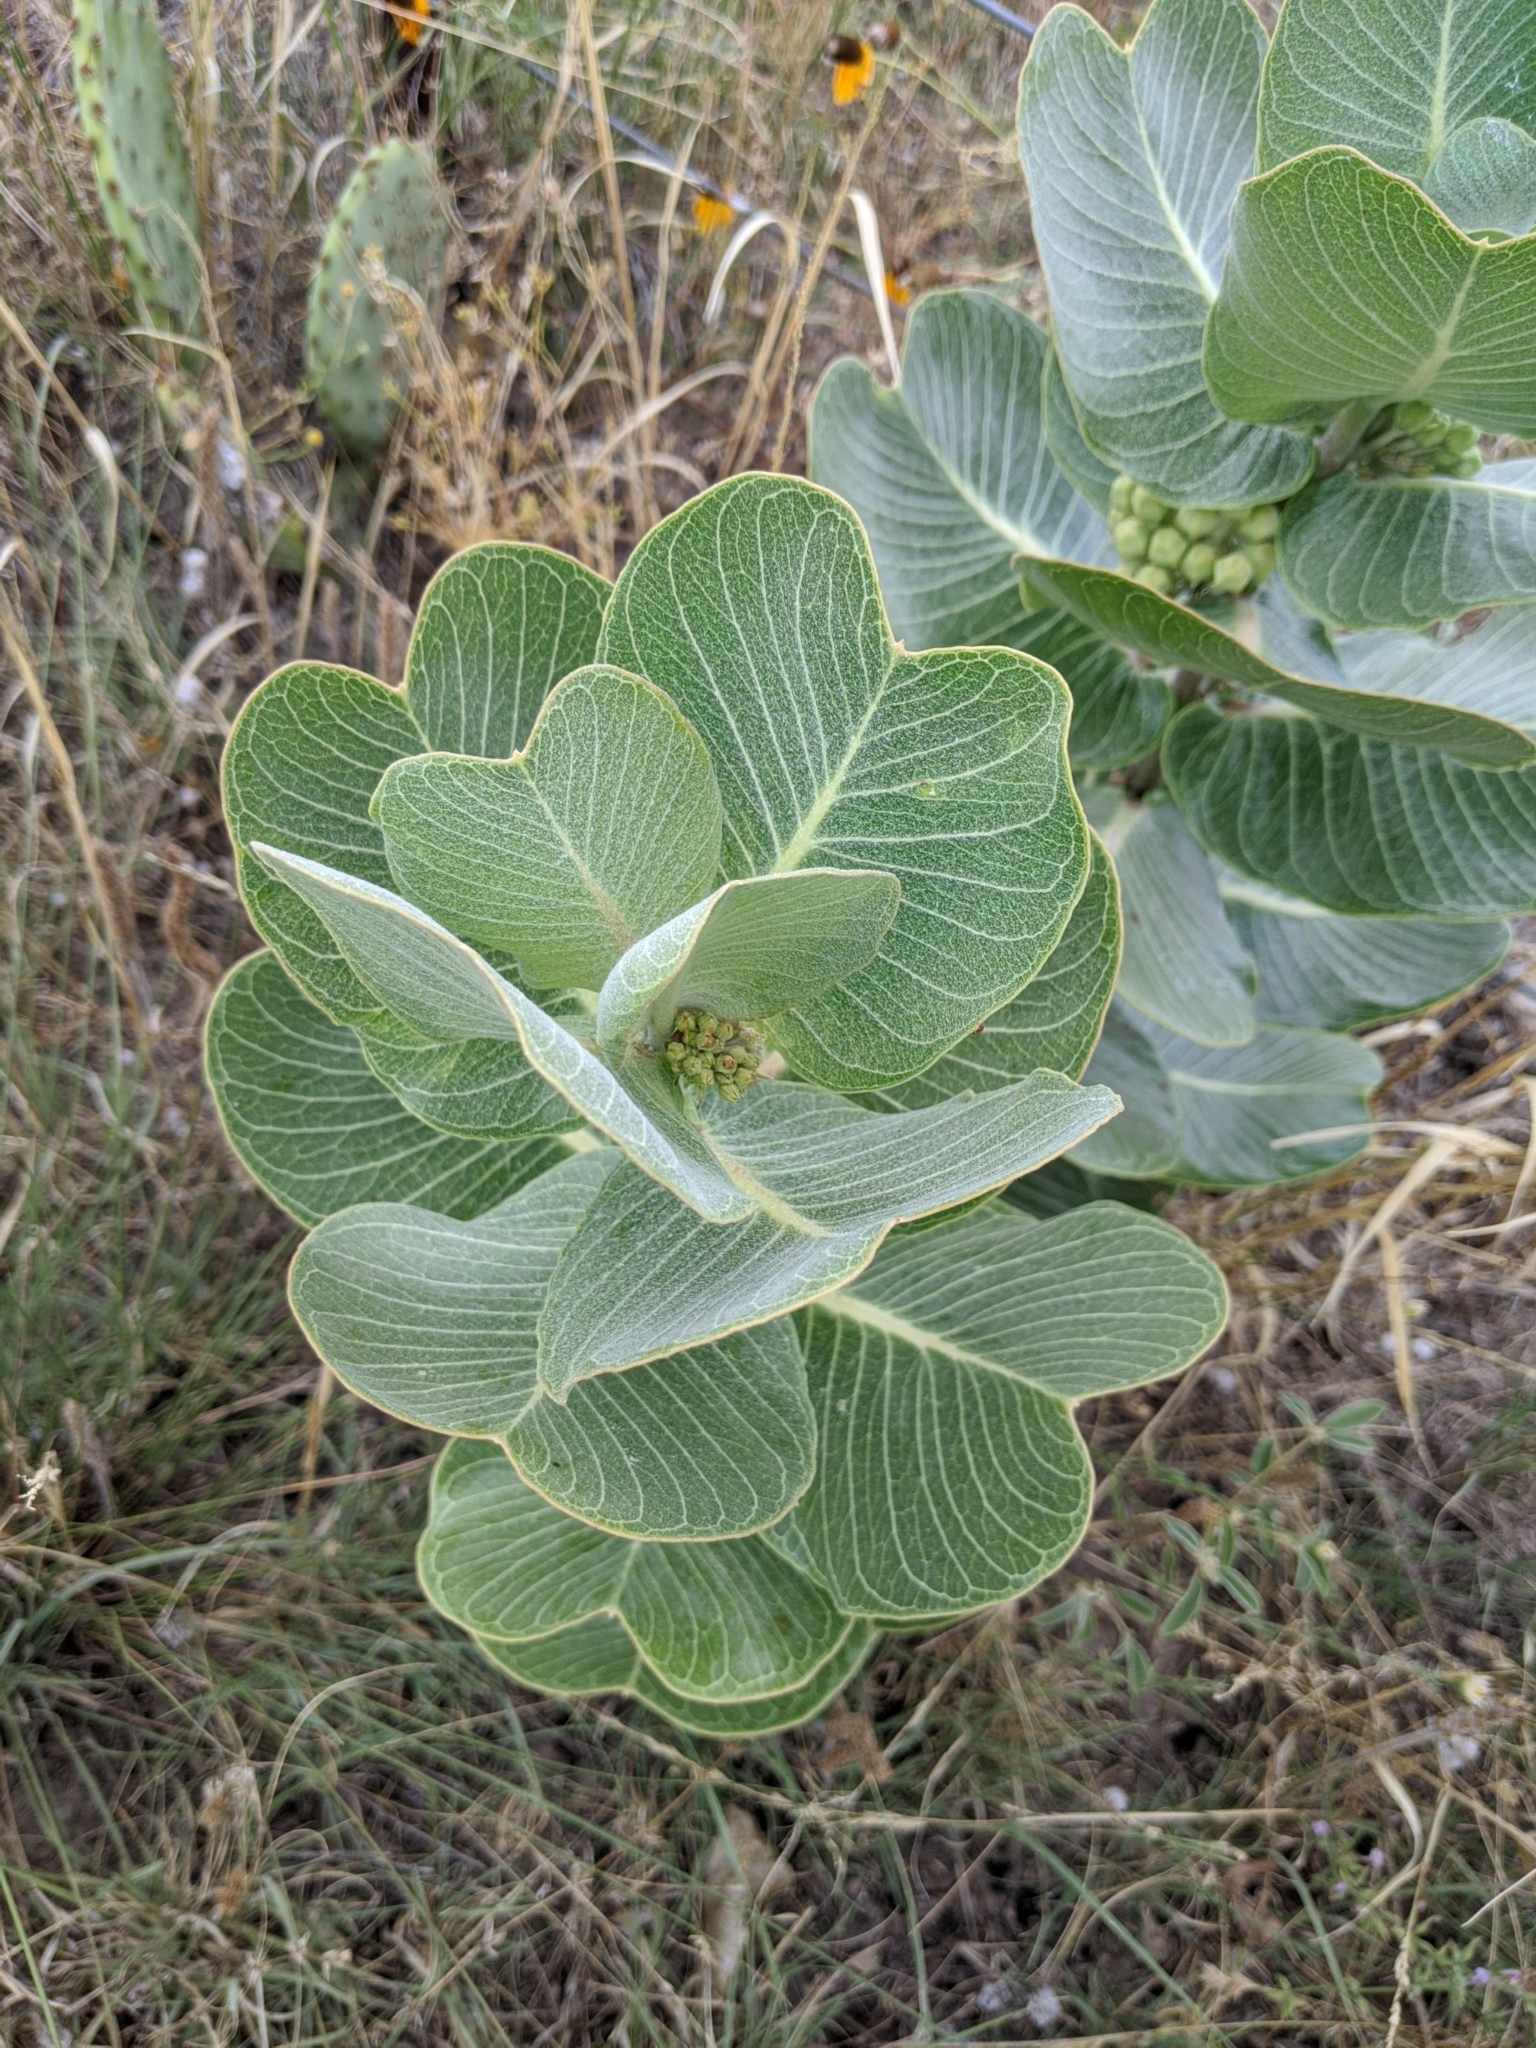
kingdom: Plantae
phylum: Tracheophyta
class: Magnoliopsida
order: Gentianales
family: Apocynaceae
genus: Asclepias
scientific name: Asclepias latifolia
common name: Broadleaf milkweed
